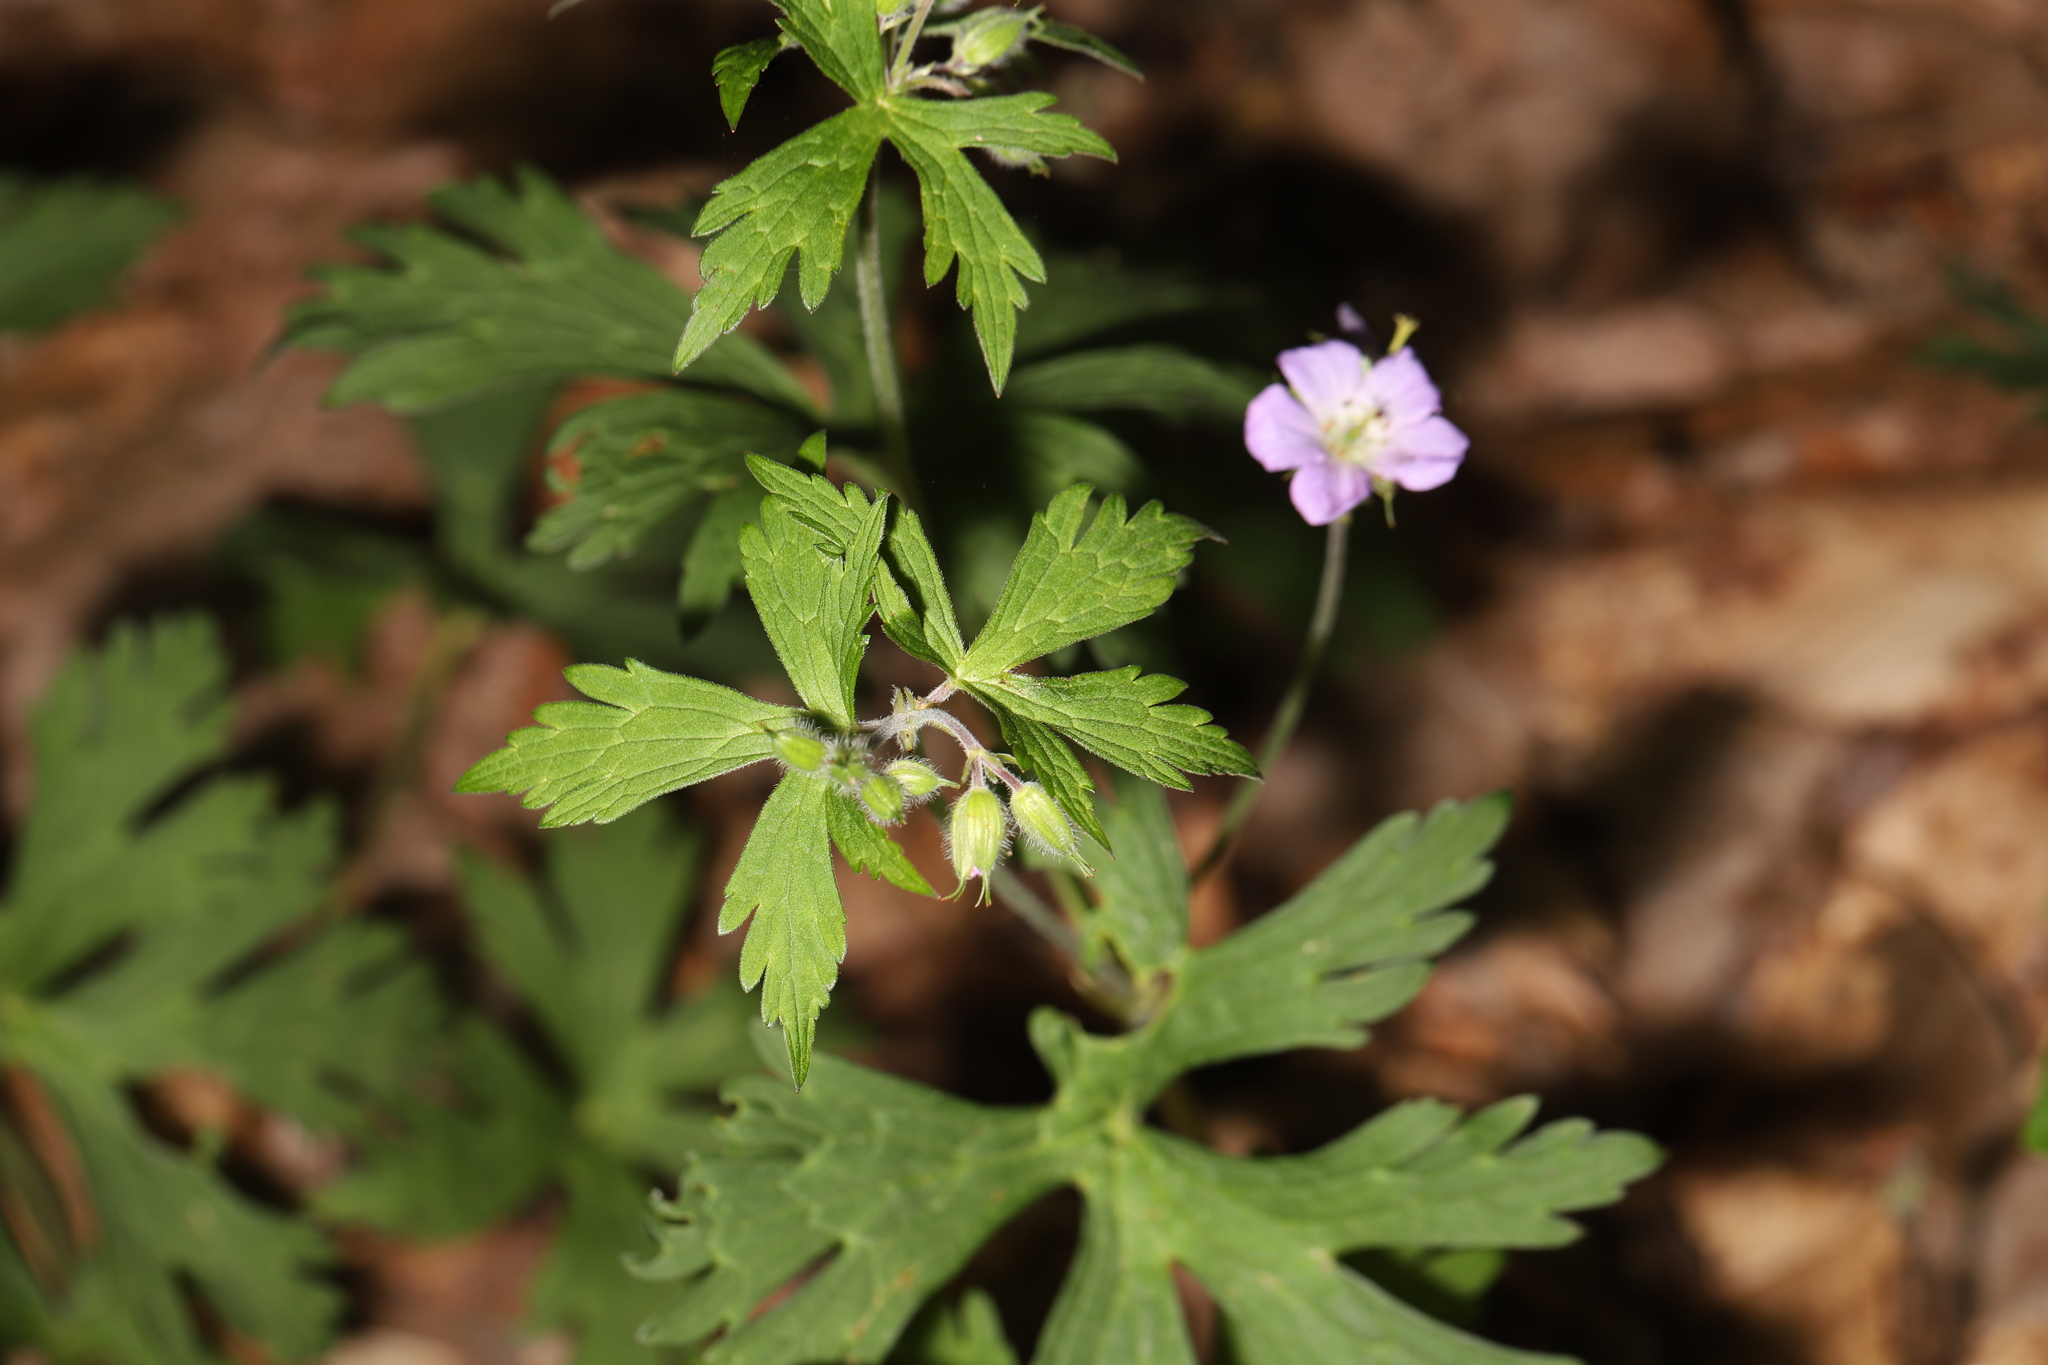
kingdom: Plantae
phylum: Tracheophyta
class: Magnoliopsida
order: Geraniales
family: Geraniaceae
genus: Geranium
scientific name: Geranium maculatum
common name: Spotted geranium
